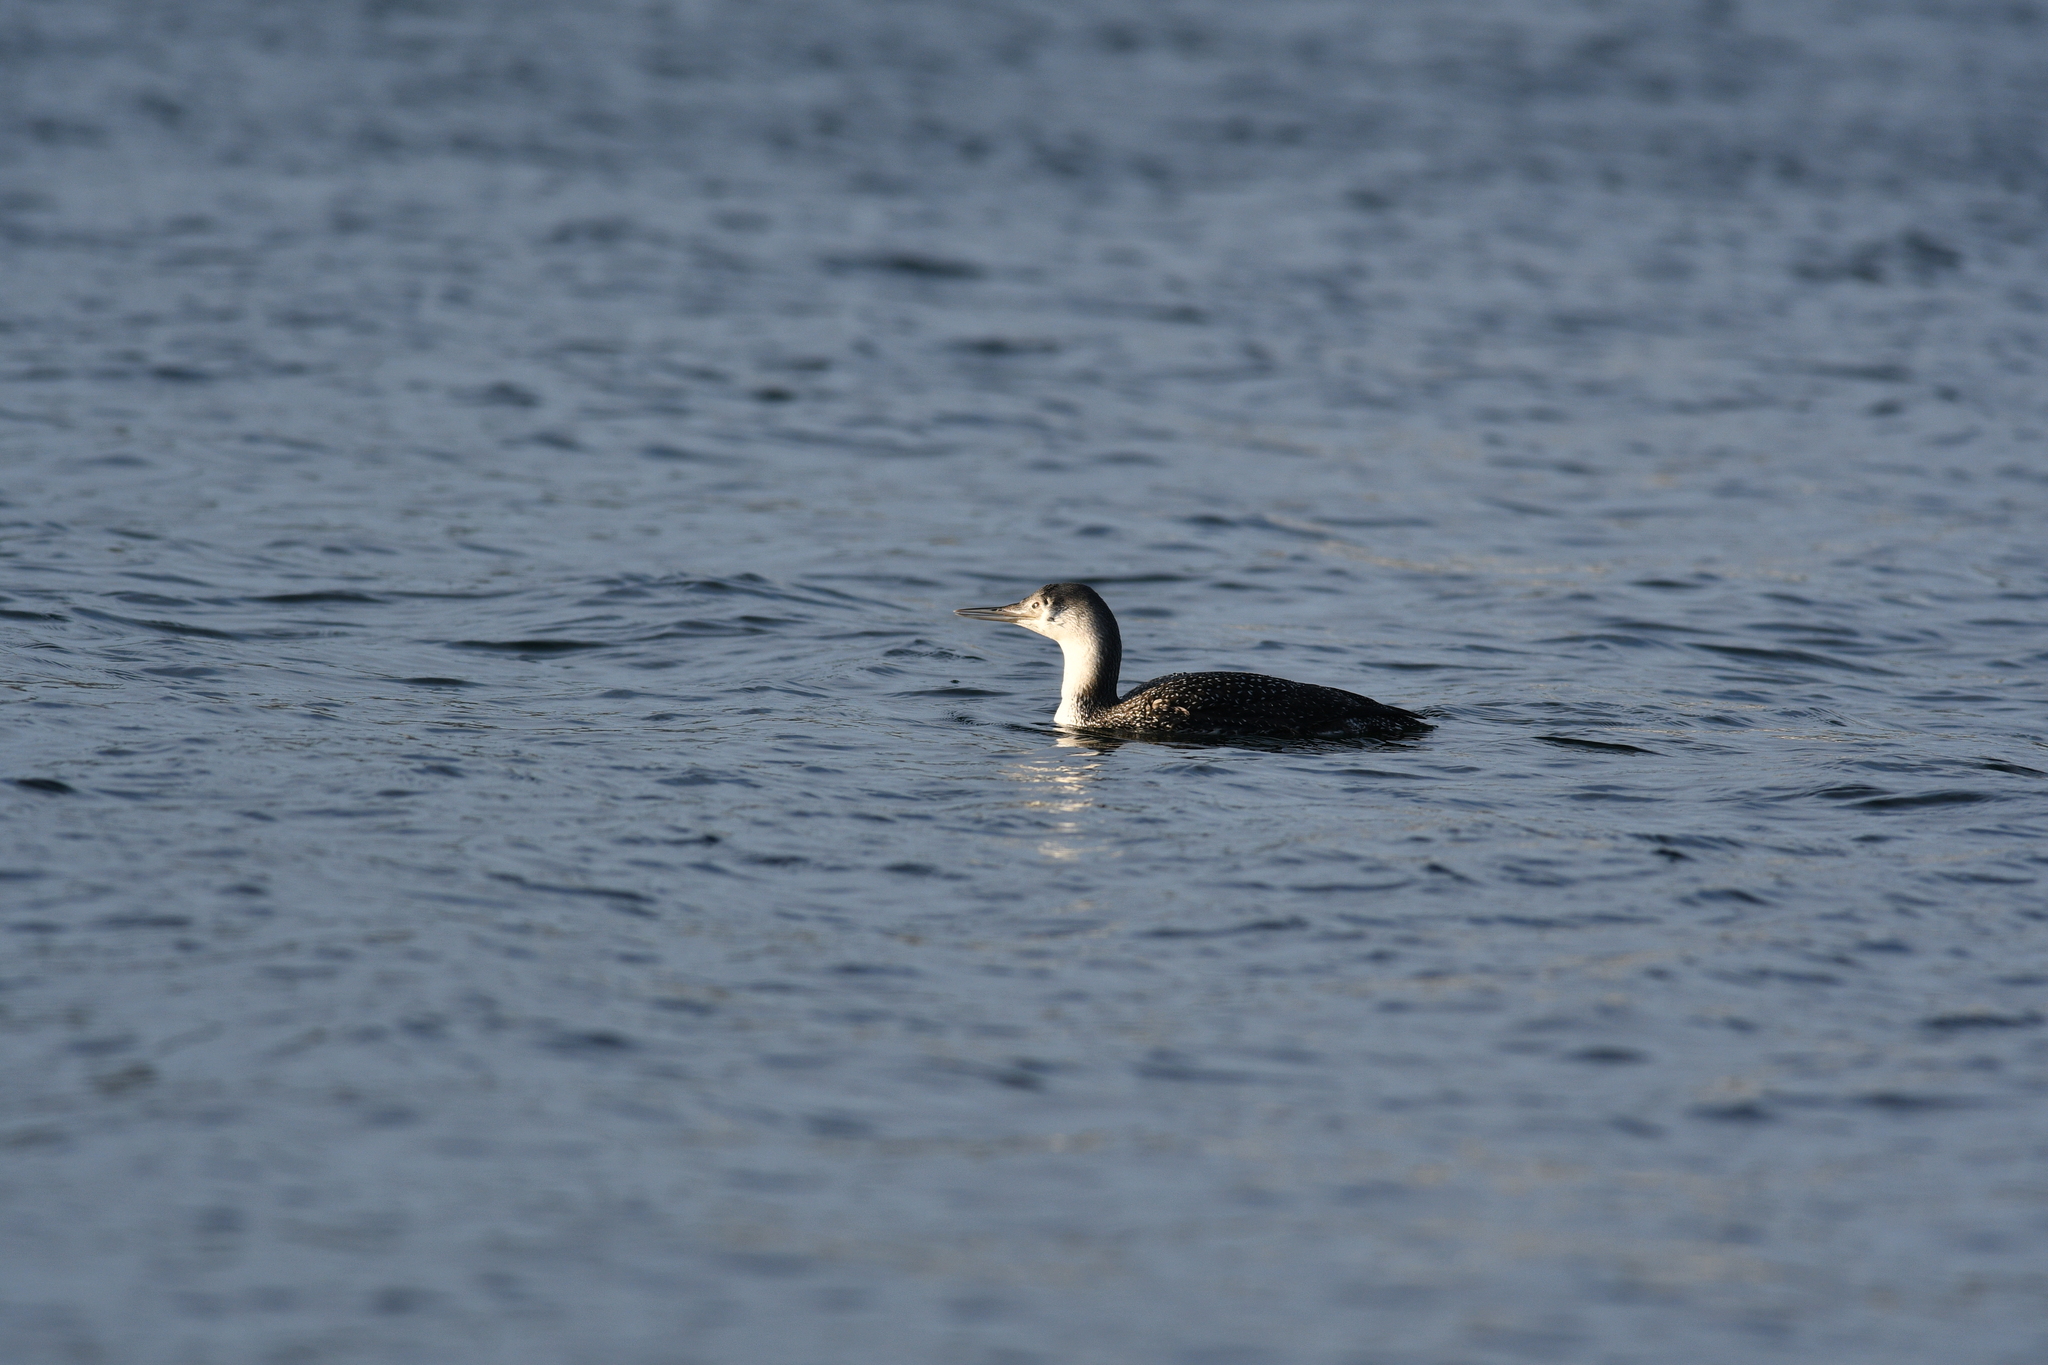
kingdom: Animalia
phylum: Chordata
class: Aves
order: Gaviiformes
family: Gaviidae
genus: Gavia
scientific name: Gavia stellata
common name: Red-throated loon
